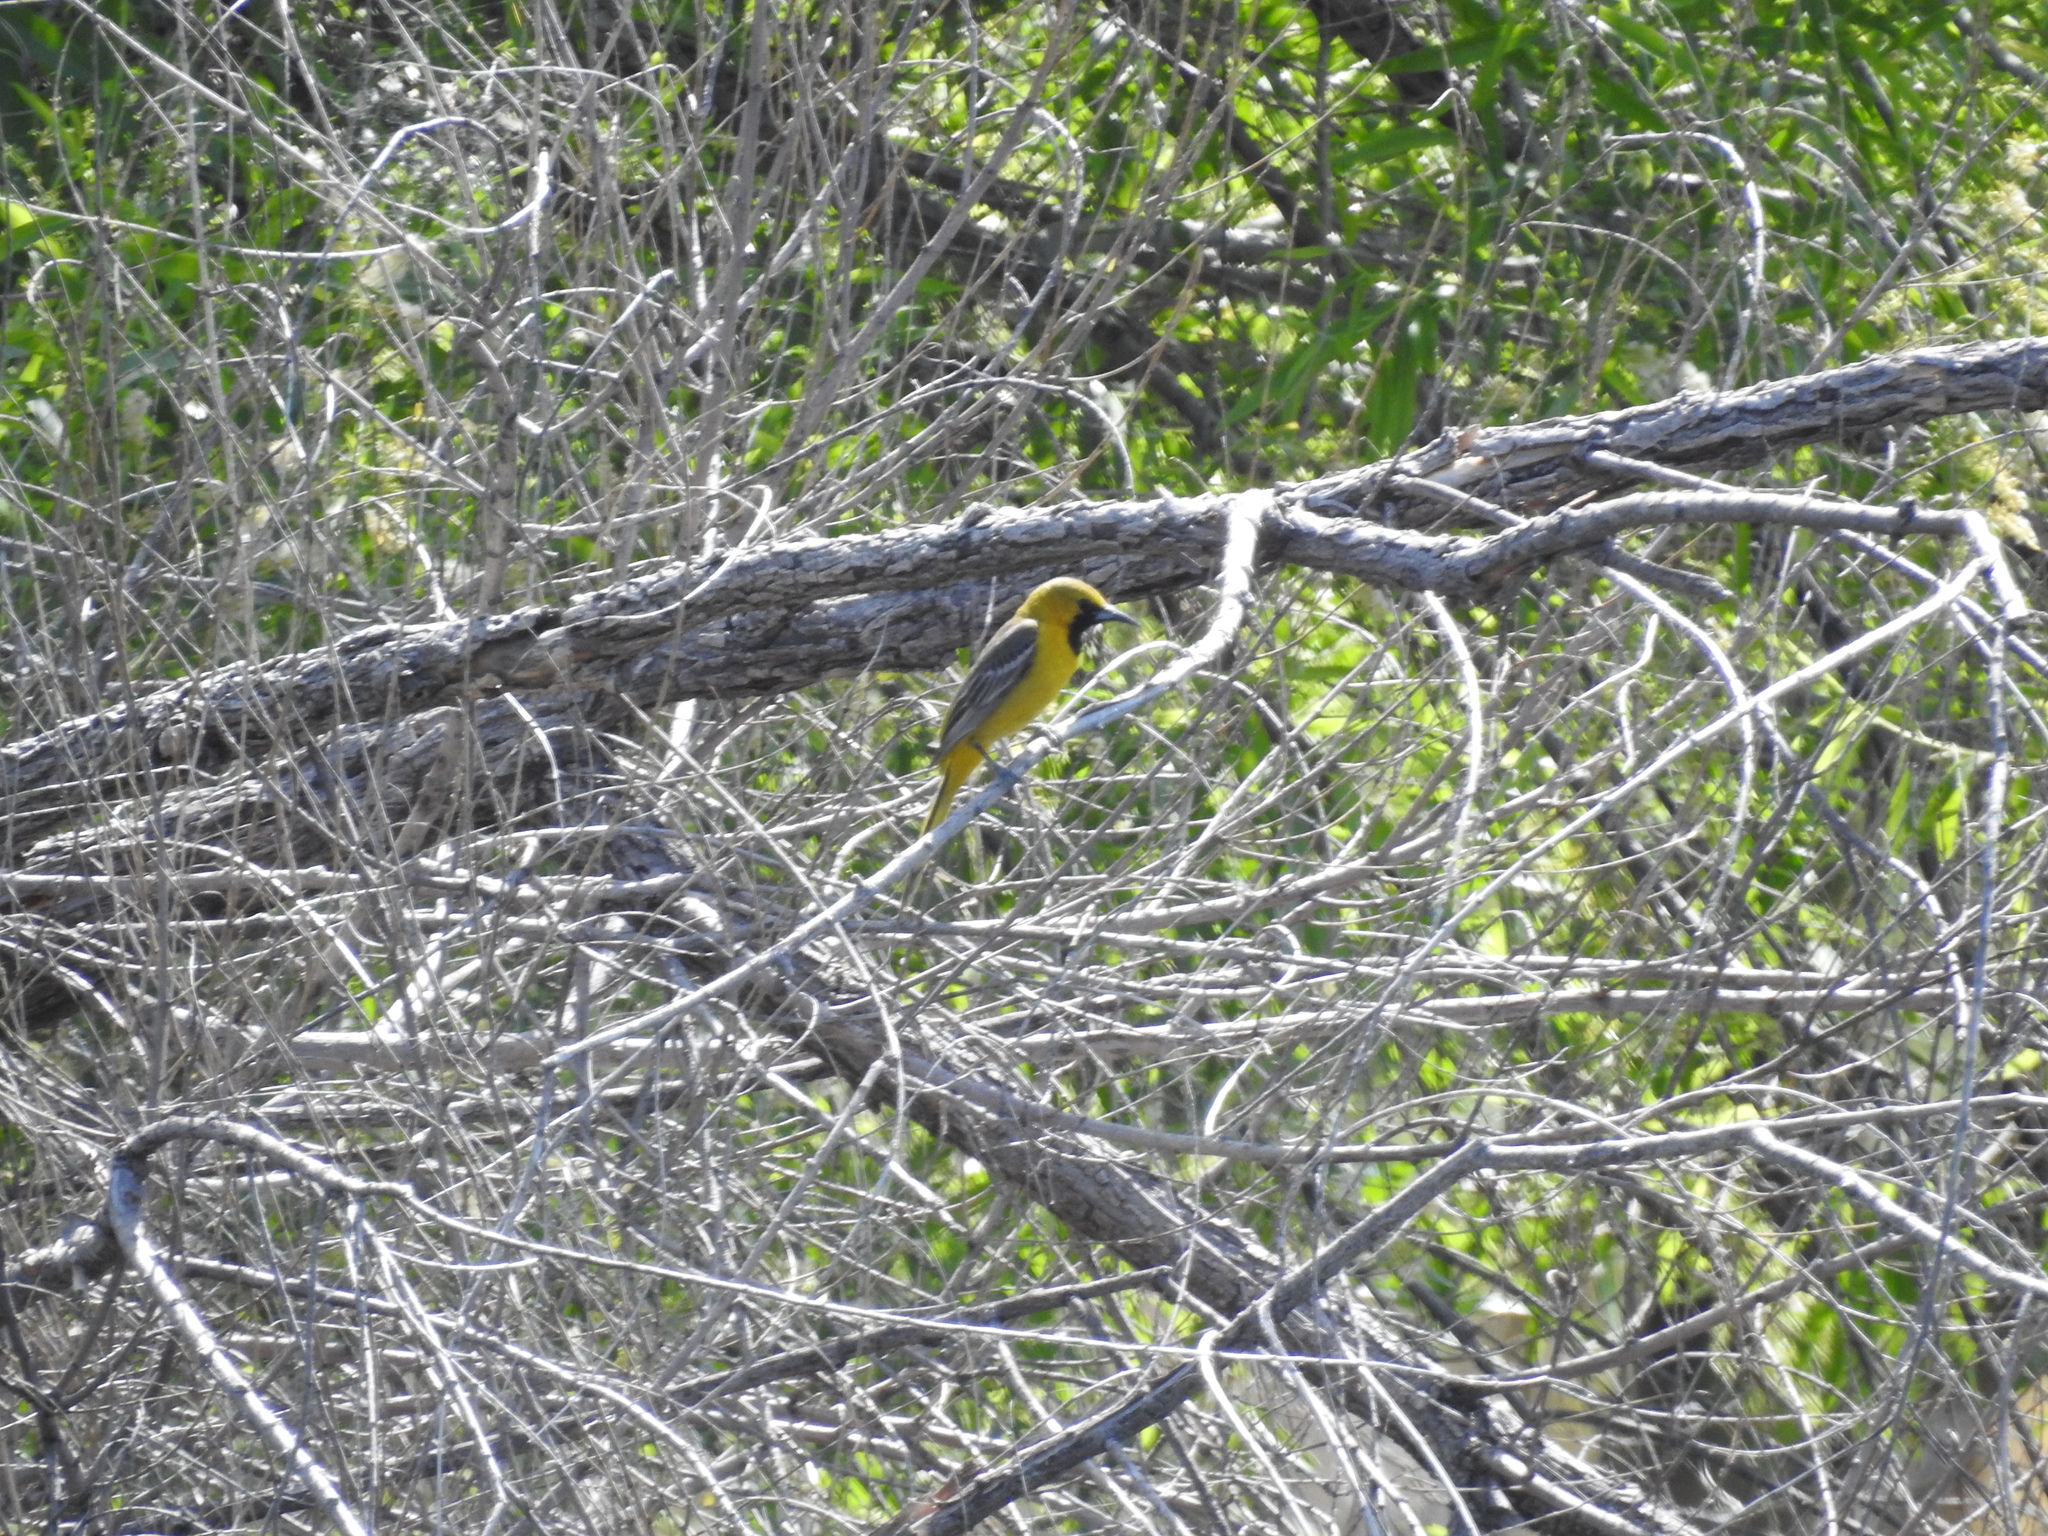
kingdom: Animalia
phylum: Chordata
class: Aves
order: Passeriformes
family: Icteridae
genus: Icterus
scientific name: Icterus cucullatus
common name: Hooded oriole
